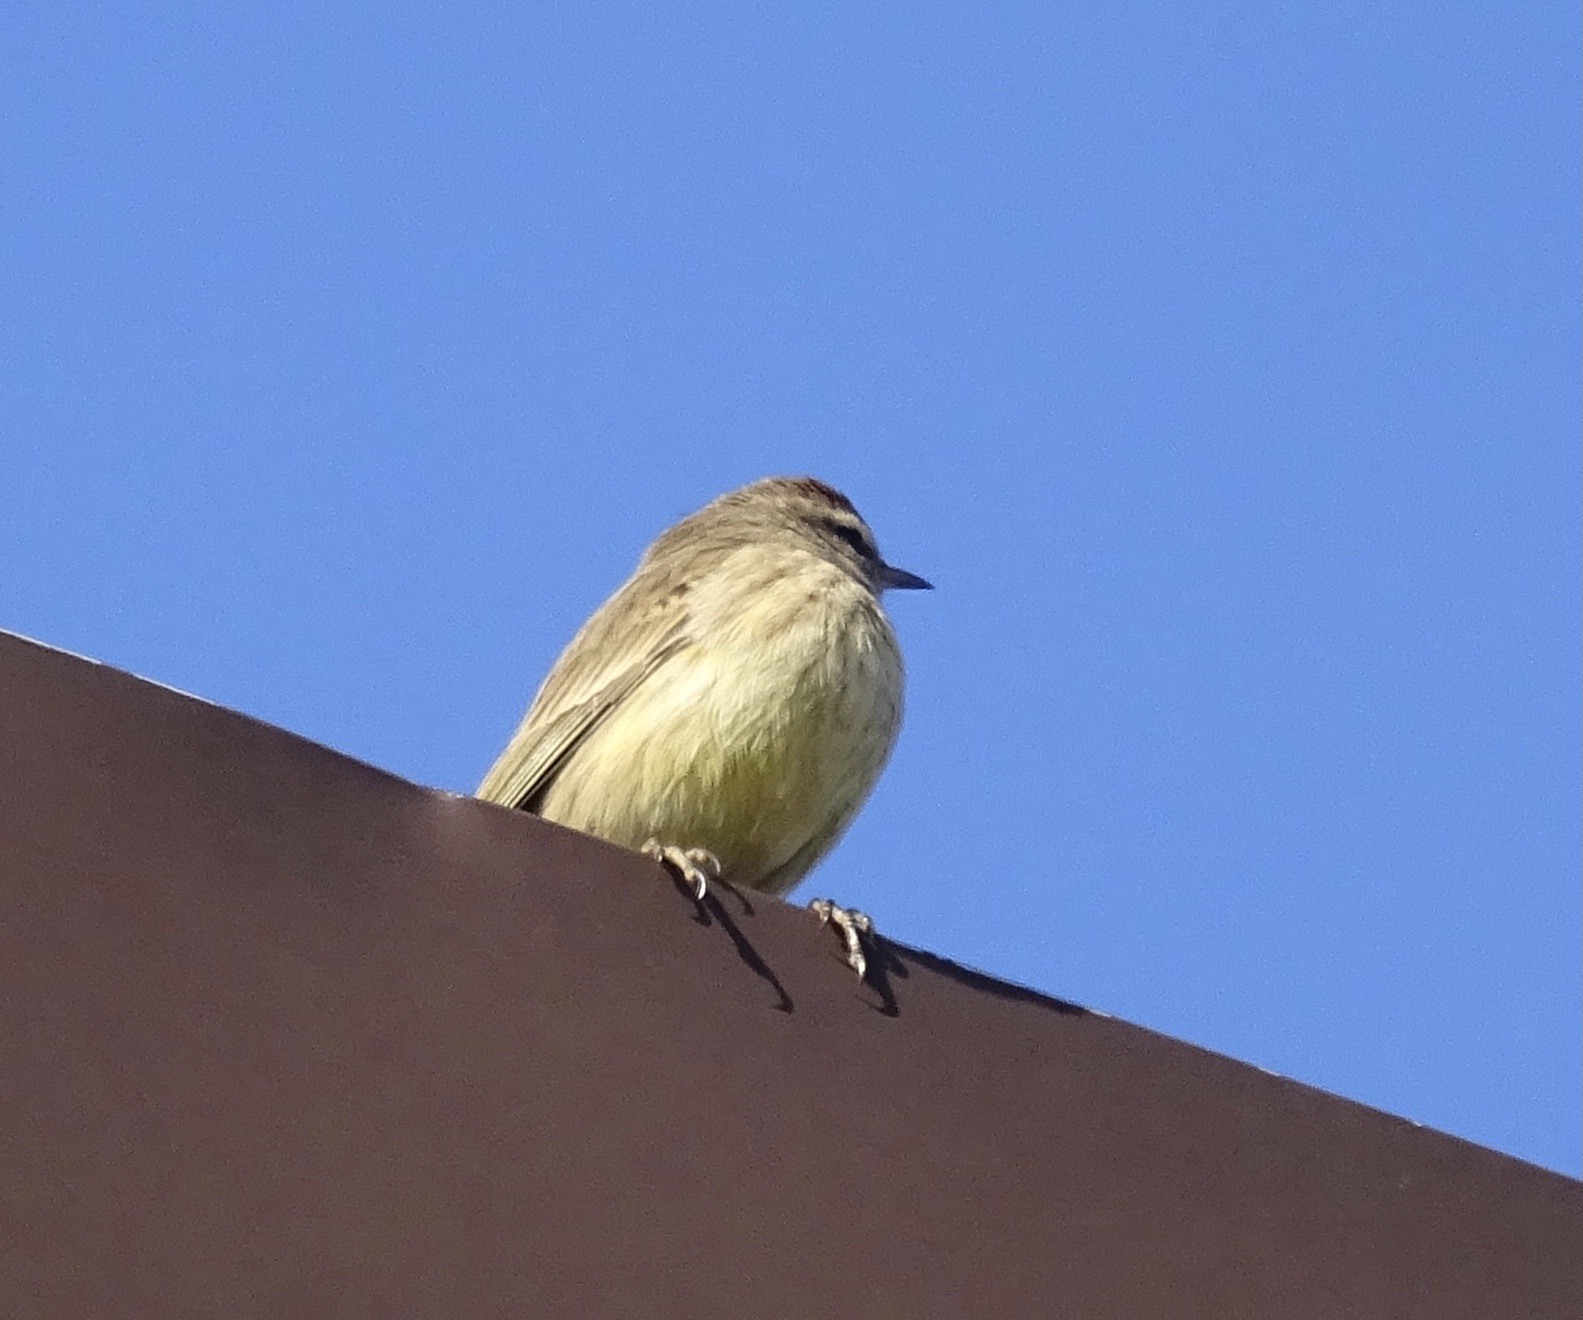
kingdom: Animalia
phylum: Chordata
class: Aves
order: Passeriformes
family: Parulidae
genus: Setophaga
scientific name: Setophaga palmarum
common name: Palm warbler
